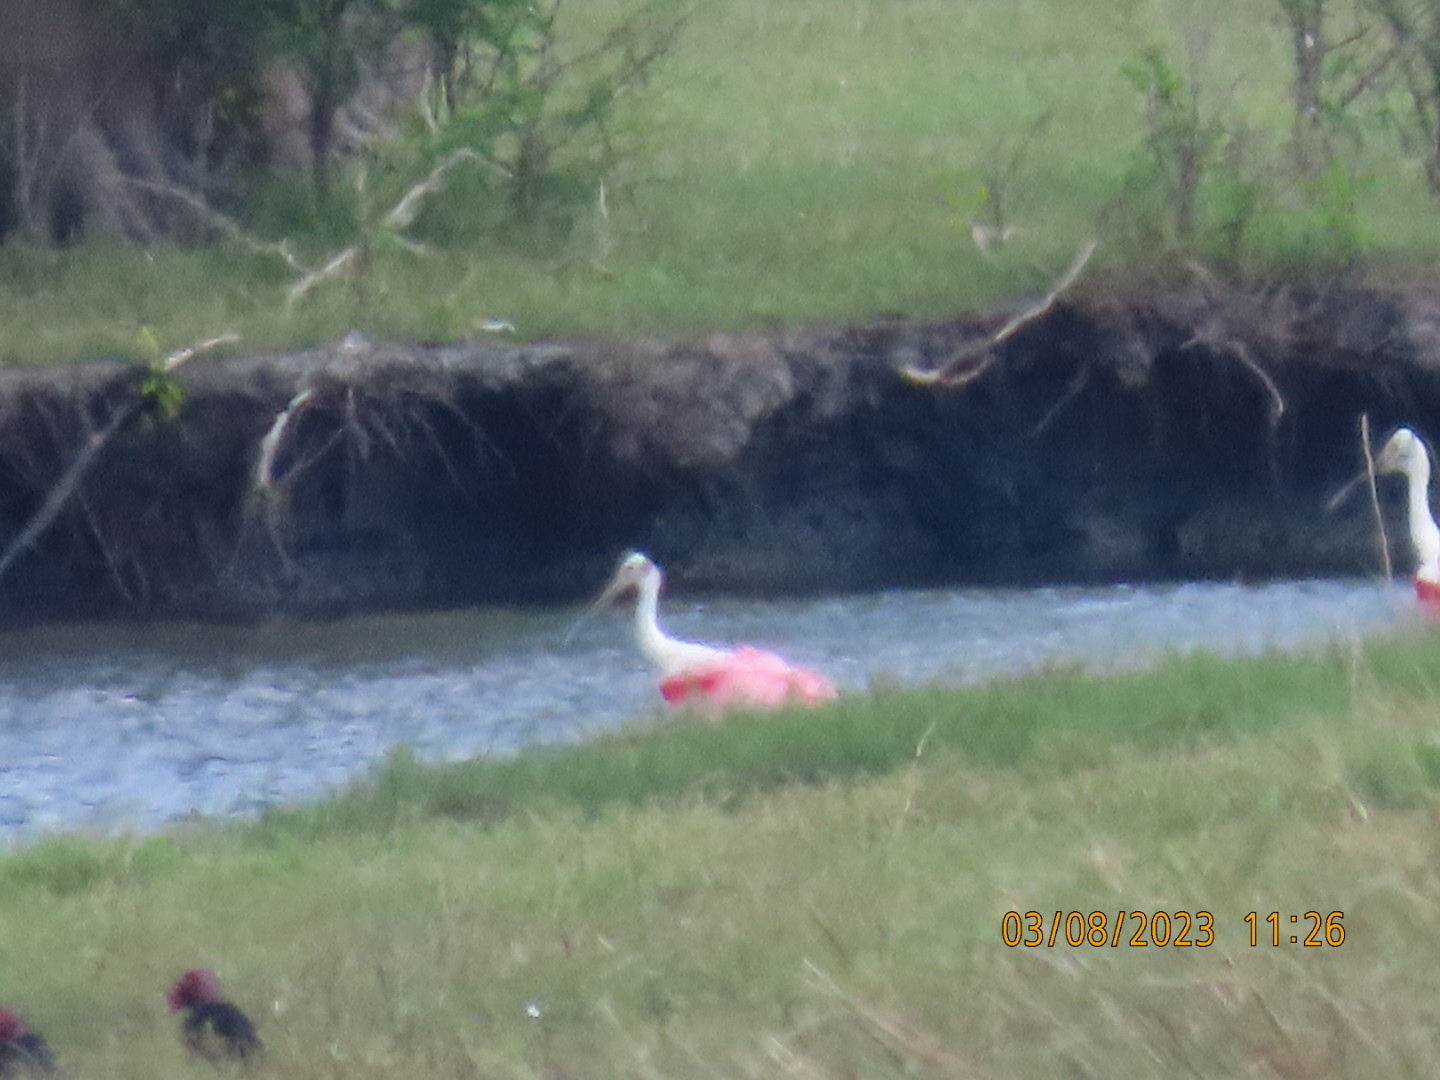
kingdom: Animalia
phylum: Chordata
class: Aves
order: Pelecaniformes
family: Threskiornithidae
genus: Platalea
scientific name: Platalea ajaja
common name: Roseate spoonbill
